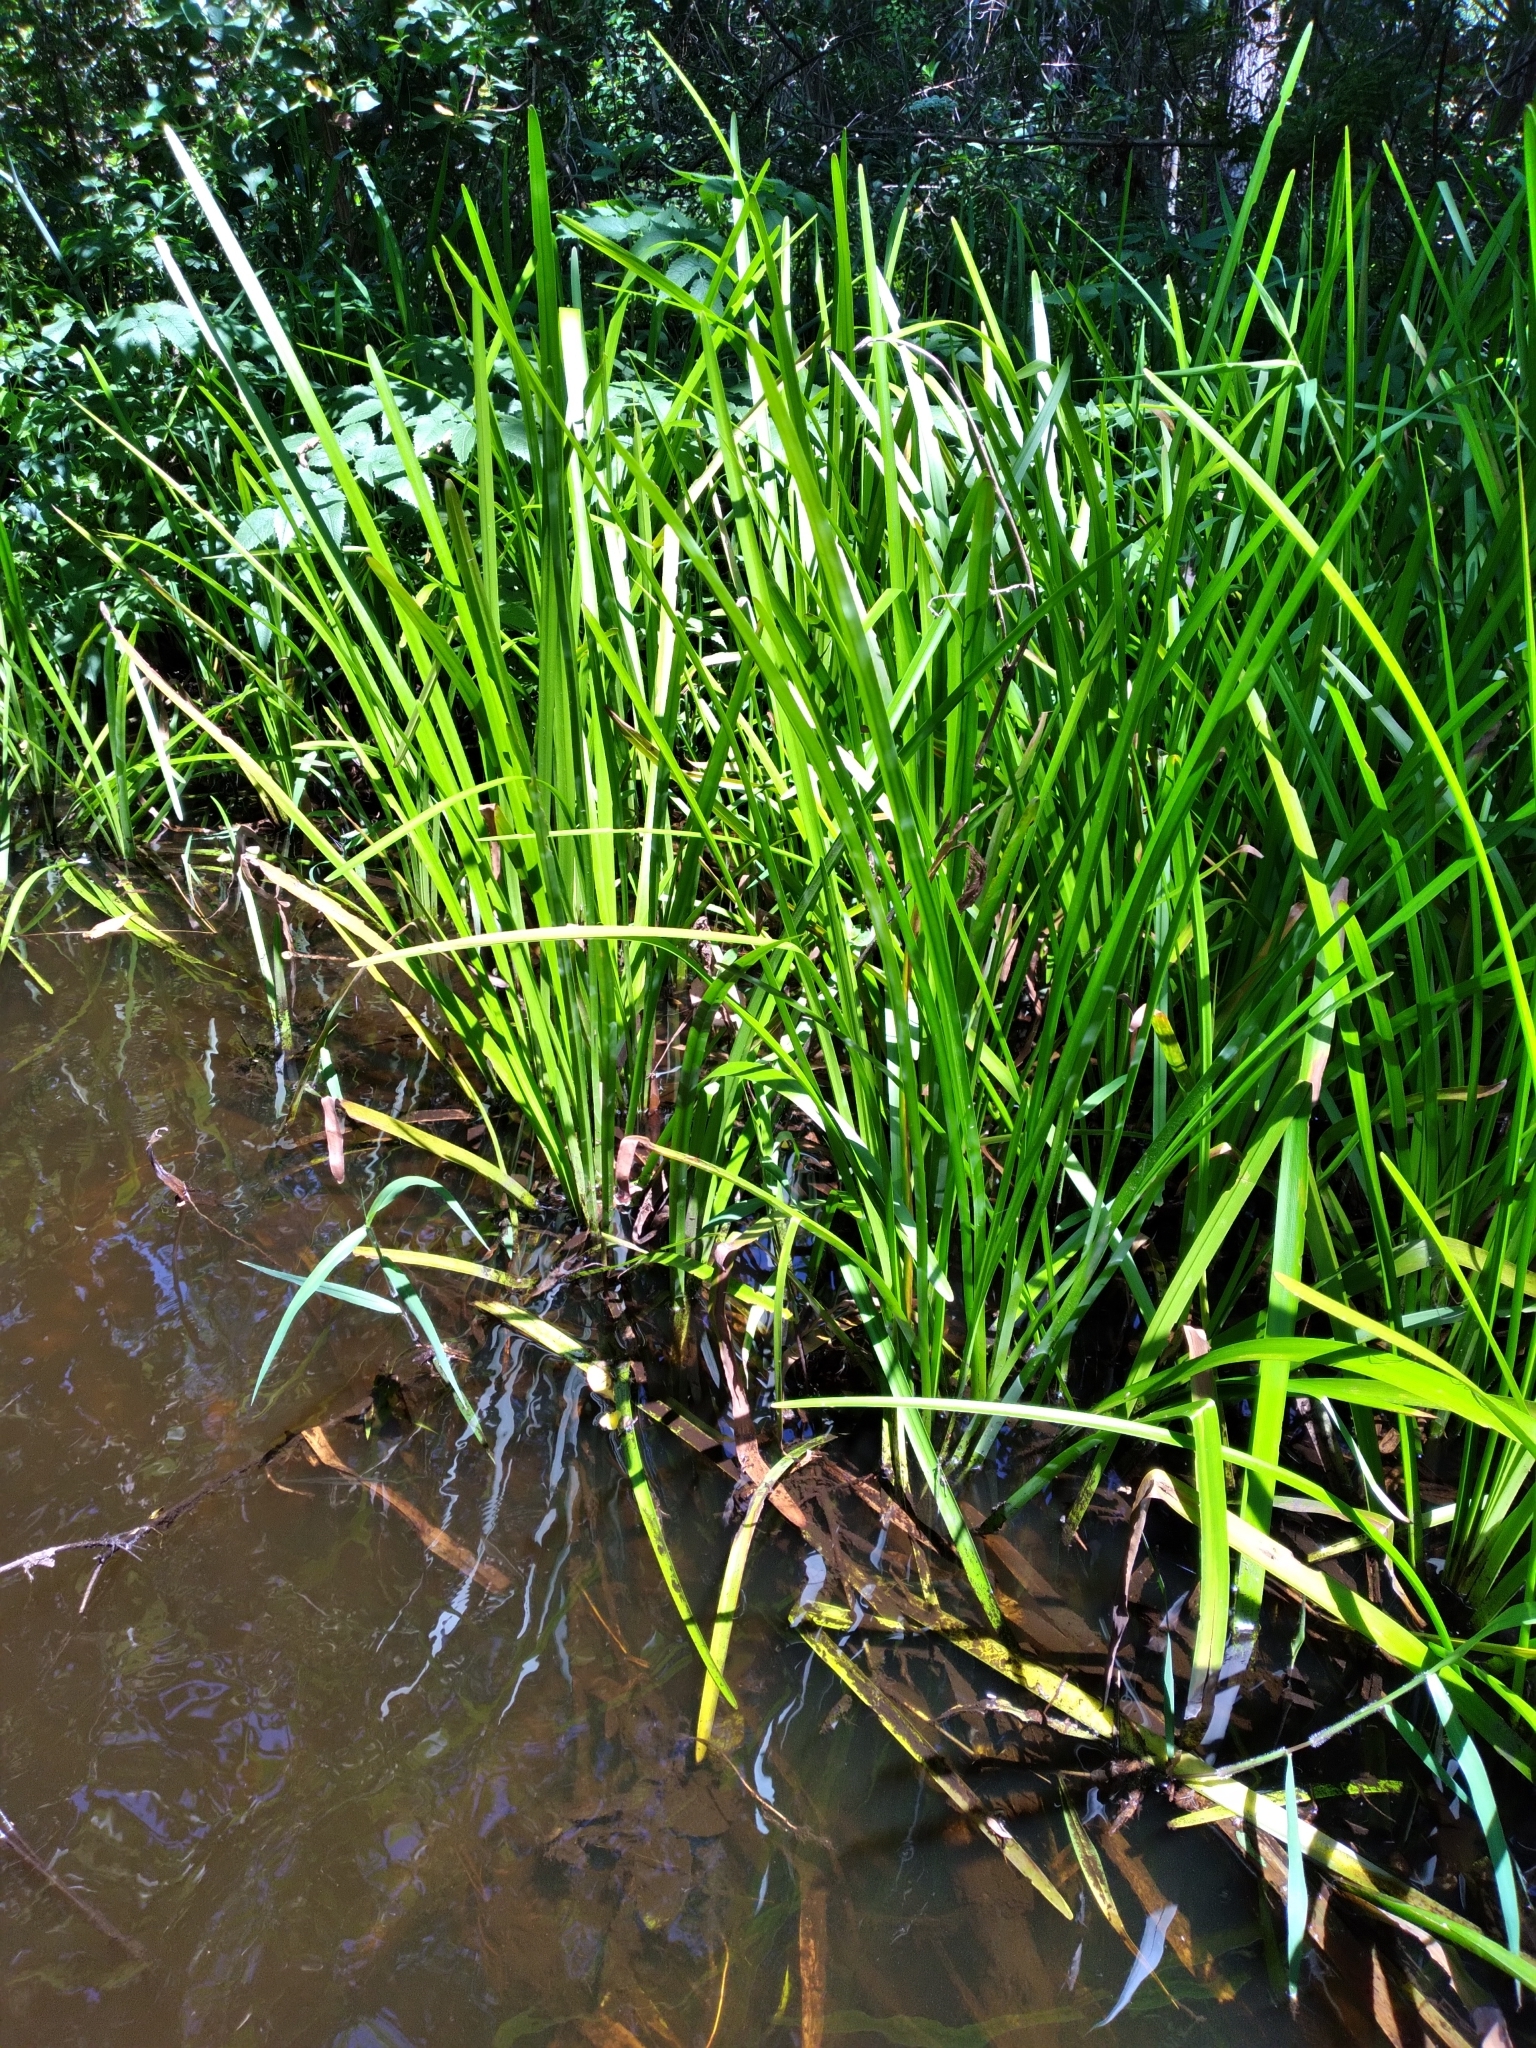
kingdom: Plantae
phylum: Tracheophyta
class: Liliopsida
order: Poales
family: Typhaceae
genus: Sparganium
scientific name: Sparganium americanum
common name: American burreed
